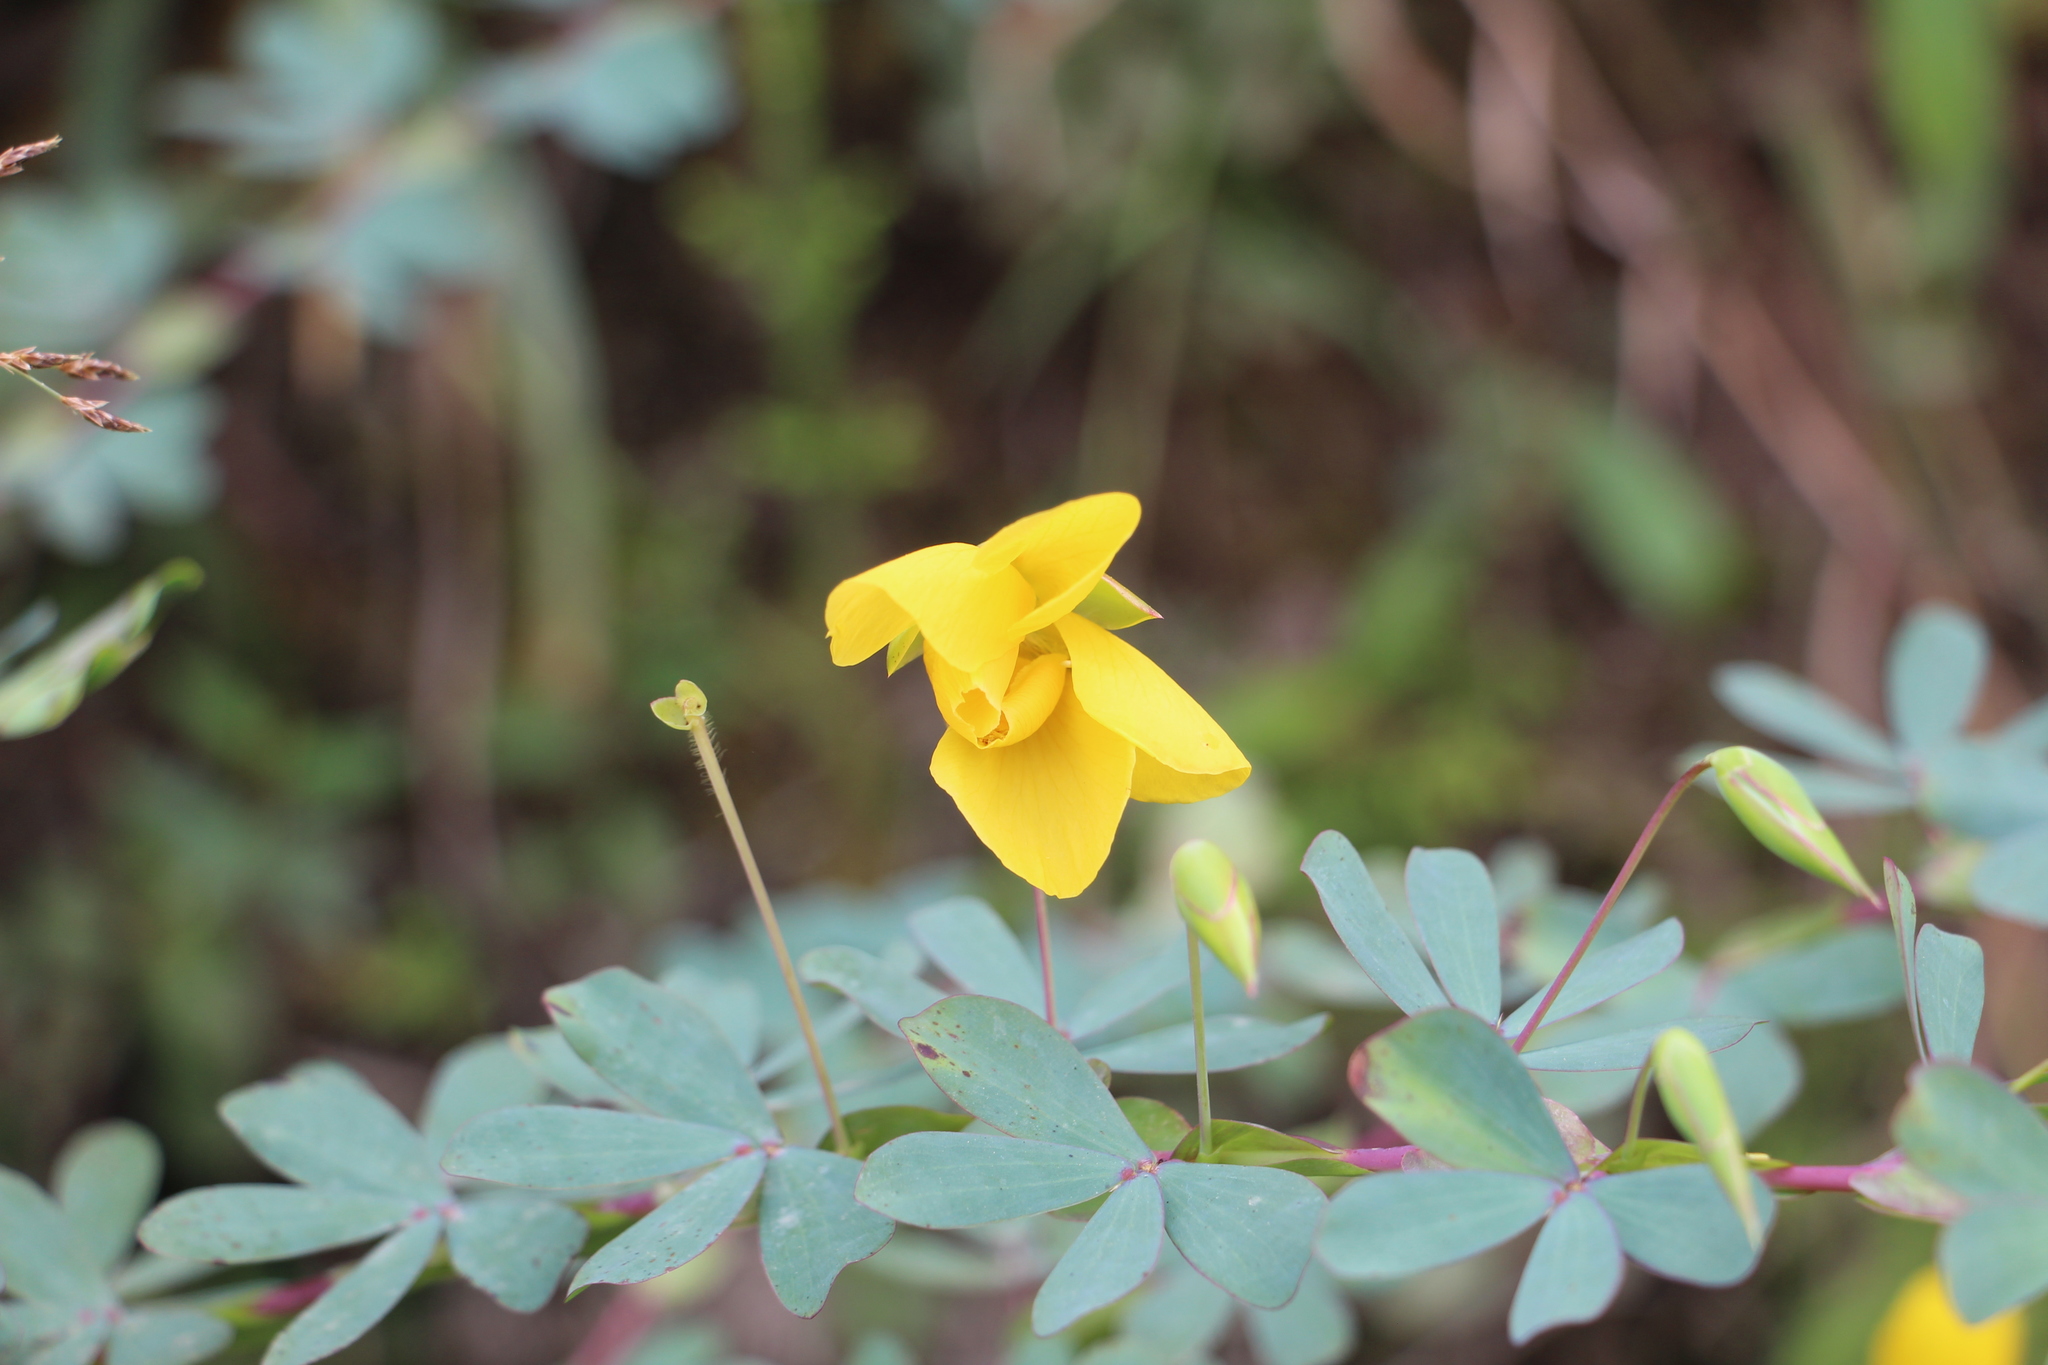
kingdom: Plantae
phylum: Tracheophyta
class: Magnoliopsida
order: Fabales
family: Fabaceae
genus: Chamaecrista
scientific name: Chamaecrista desvauxii
